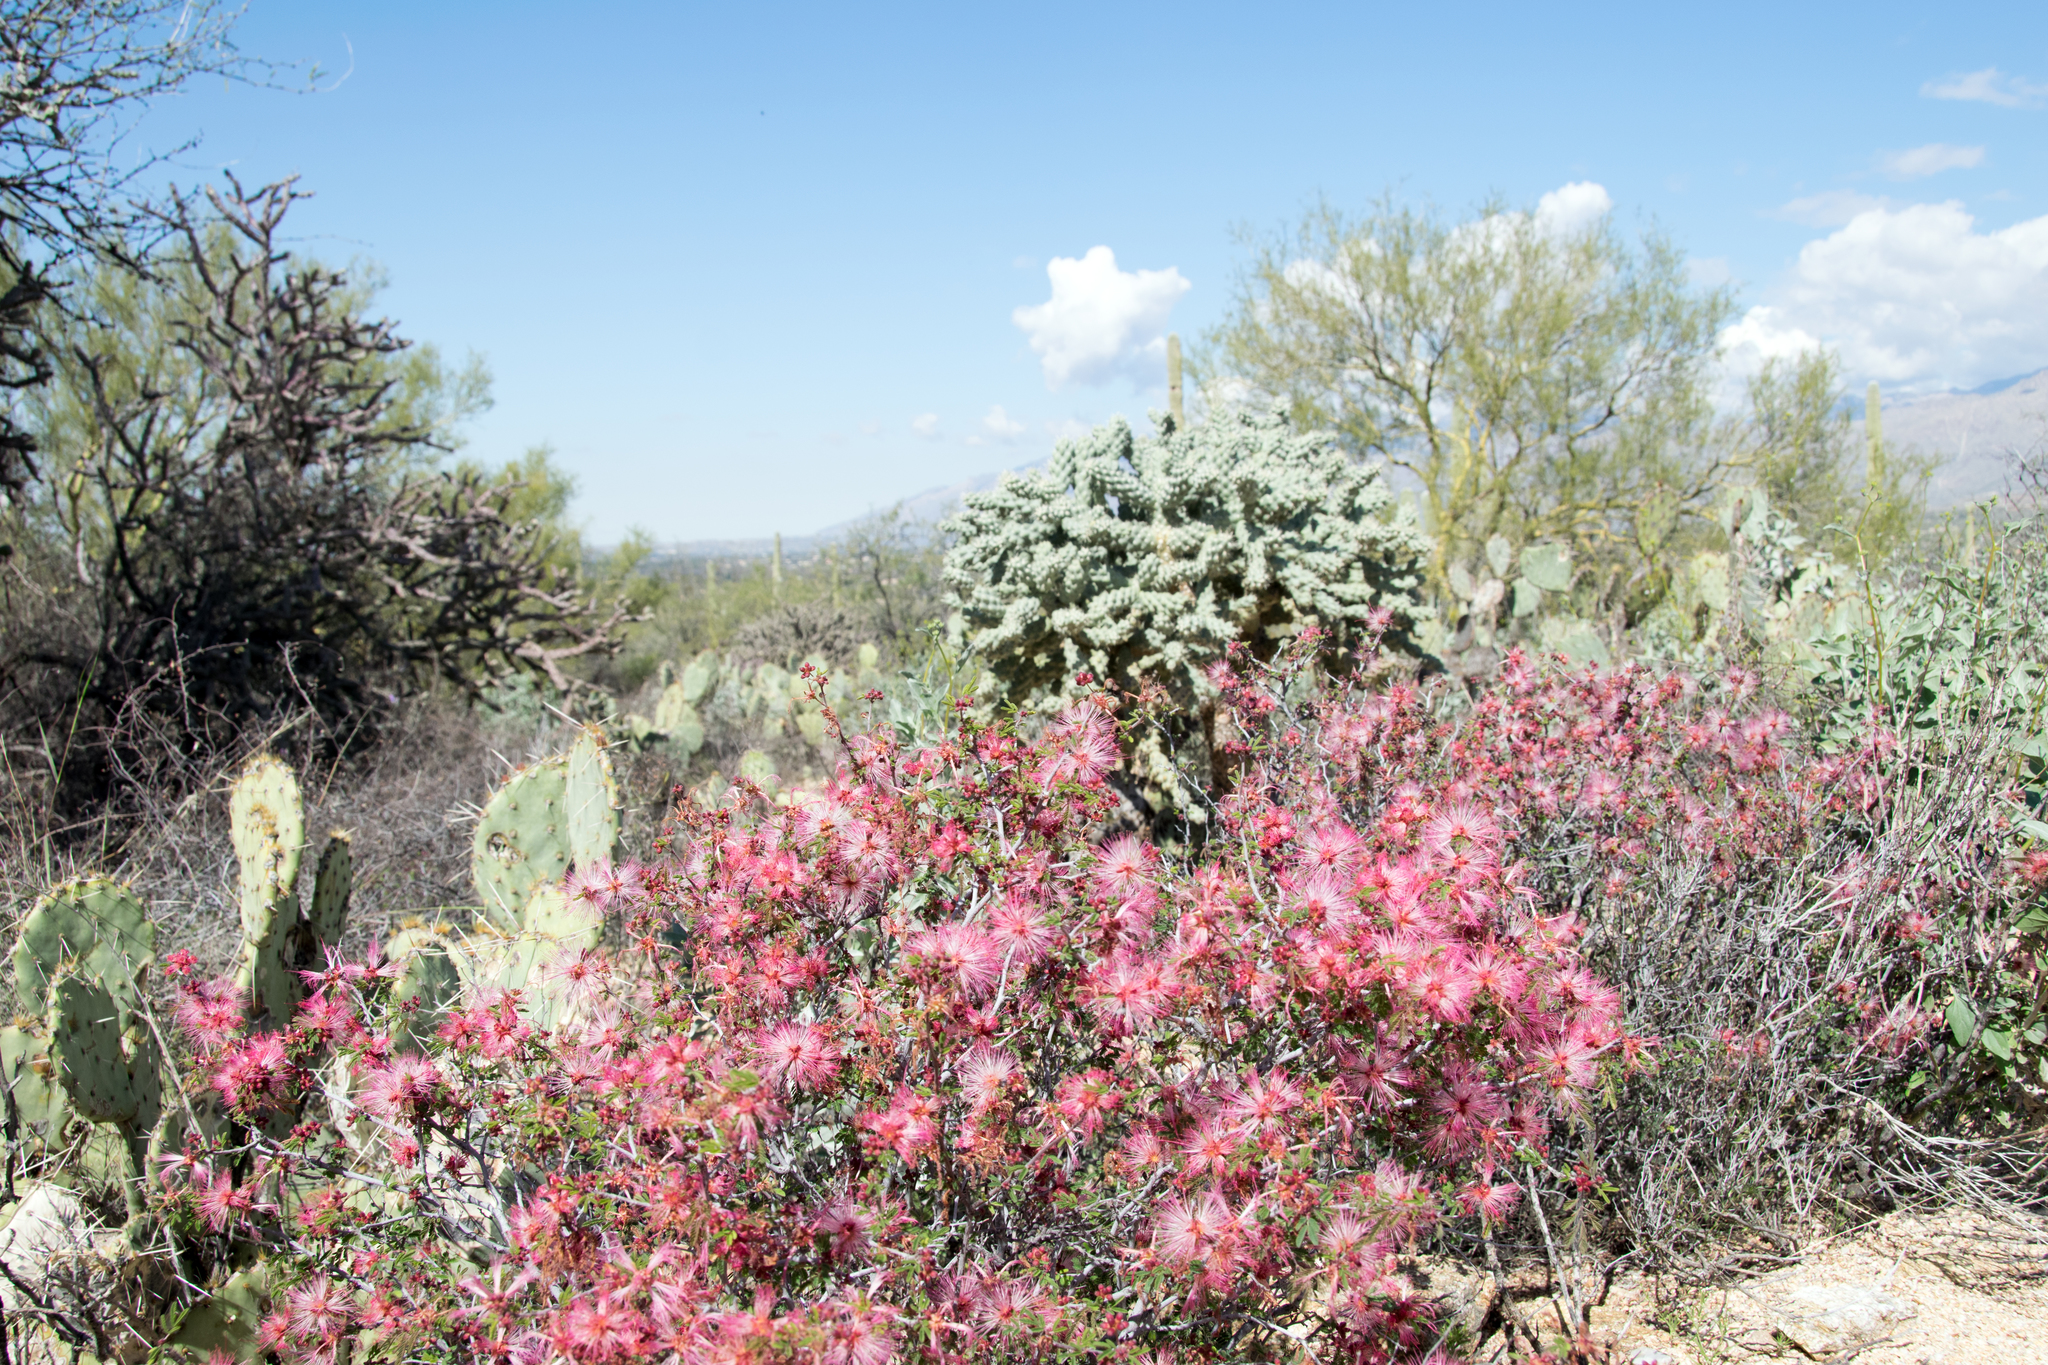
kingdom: Plantae
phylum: Tracheophyta
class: Magnoliopsida
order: Fabales
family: Fabaceae
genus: Calliandra
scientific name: Calliandra eriophylla
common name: Fairy-duster
